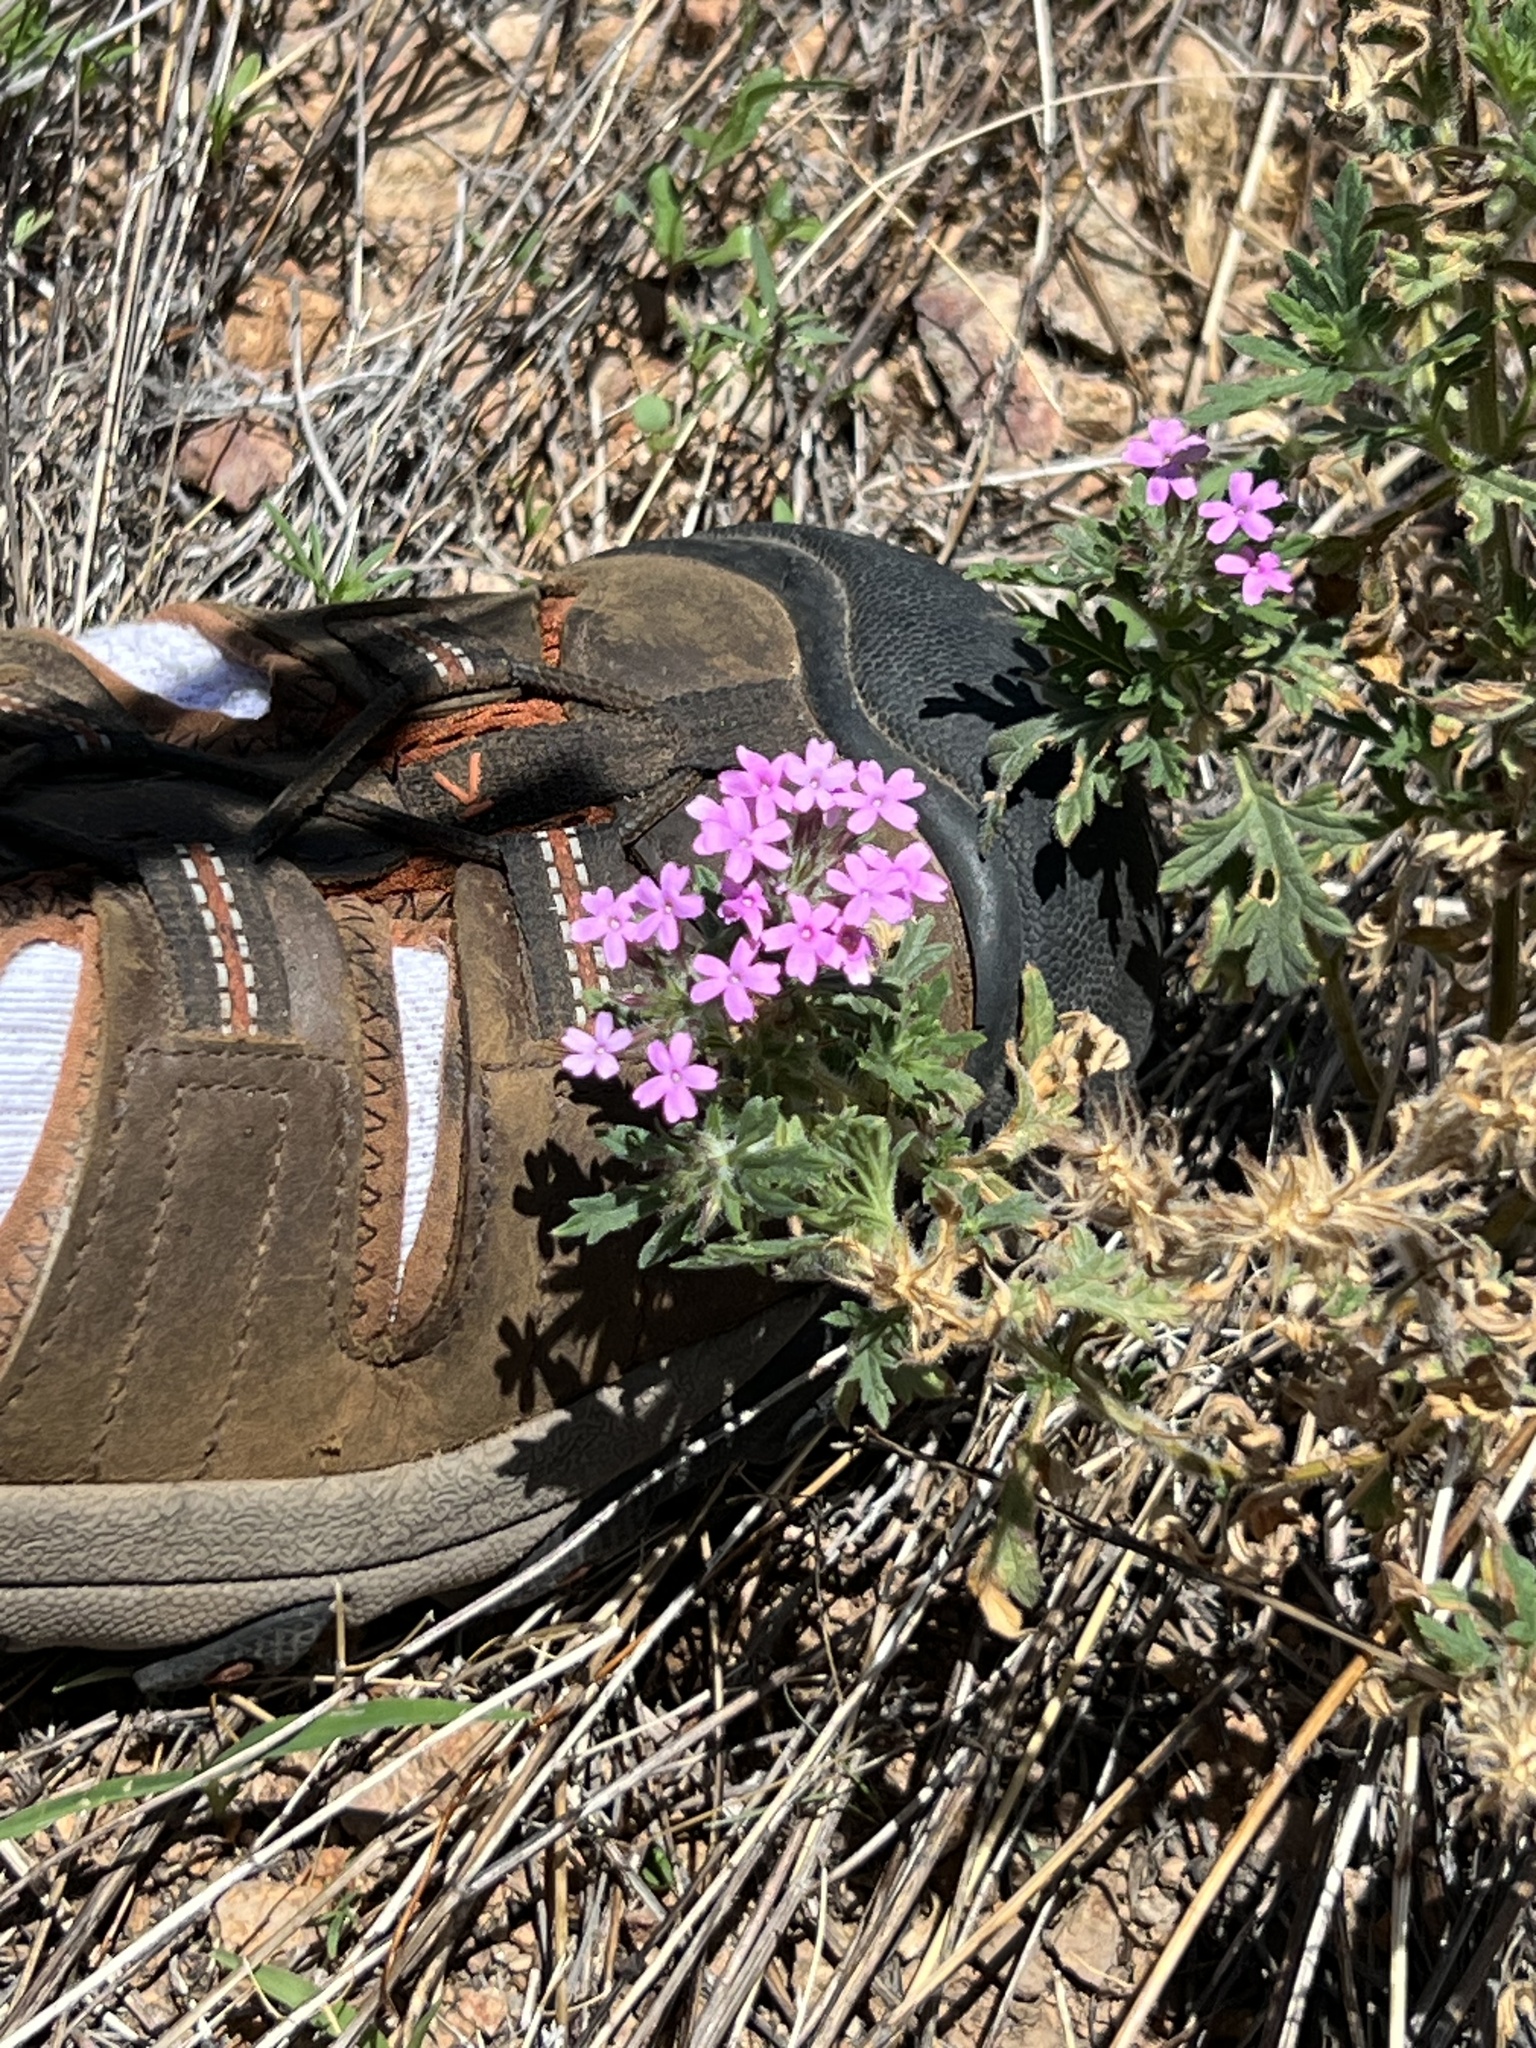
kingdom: Plantae
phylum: Tracheophyta
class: Magnoliopsida
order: Lamiales
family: Verbenaceae
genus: Verbena
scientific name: Verbena chiricahensis
